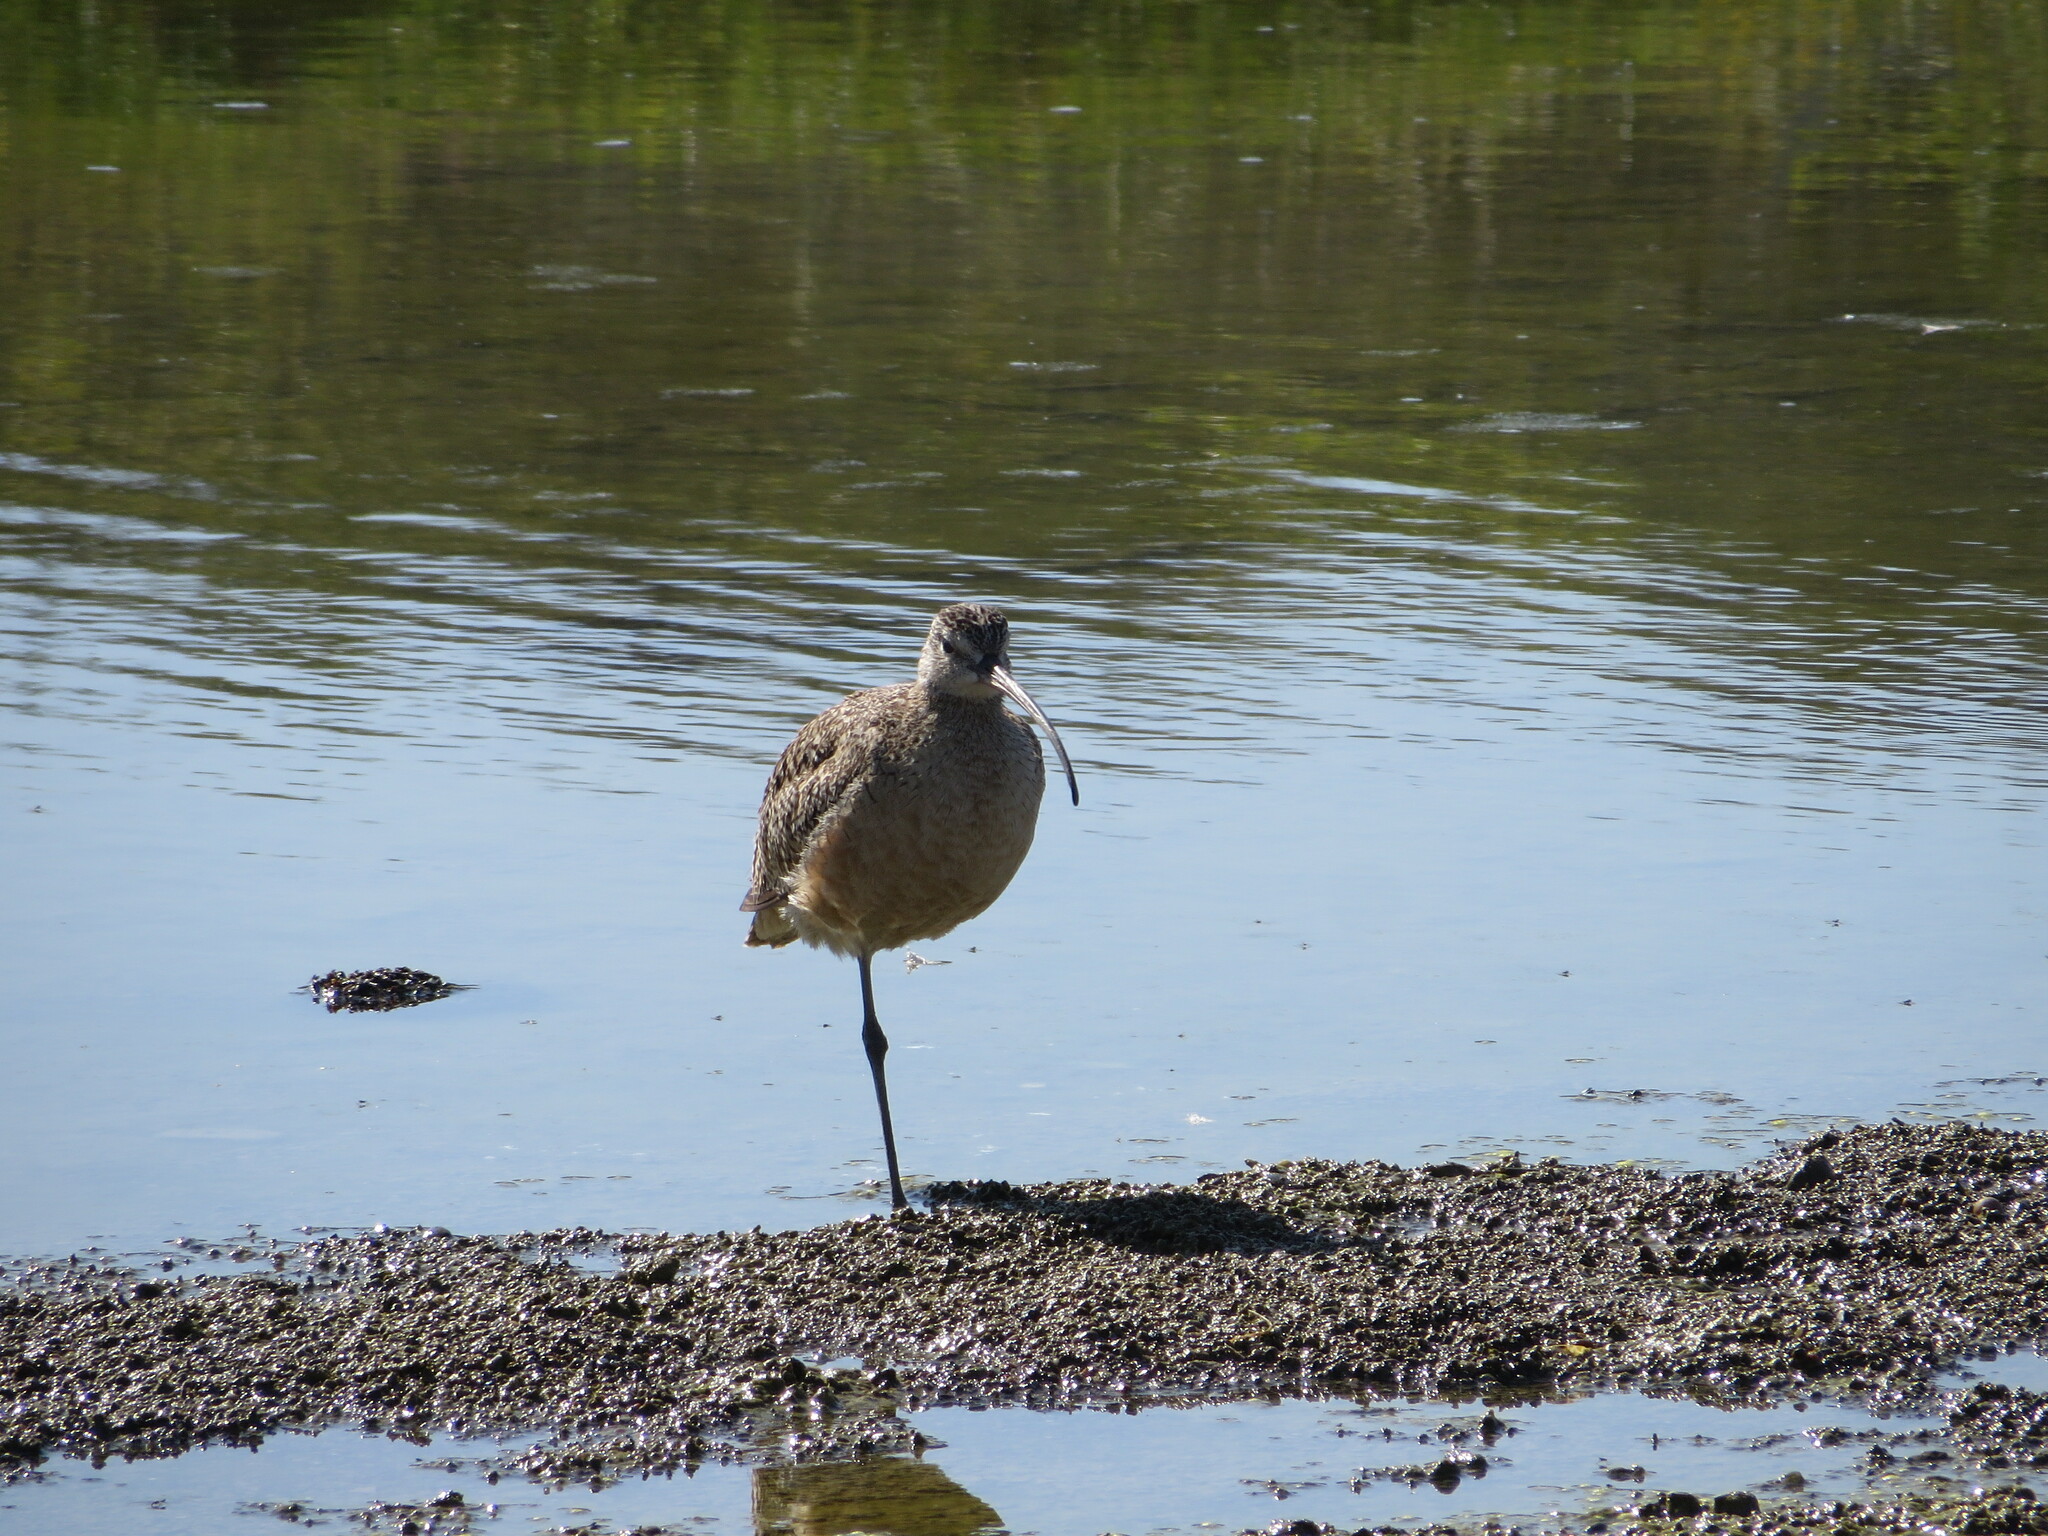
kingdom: Animalia
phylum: Chordata
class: Aves
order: Charadriiformes
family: Scolopacidae
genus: Numenius
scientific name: Numenius phaeopus
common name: Whimbrel
